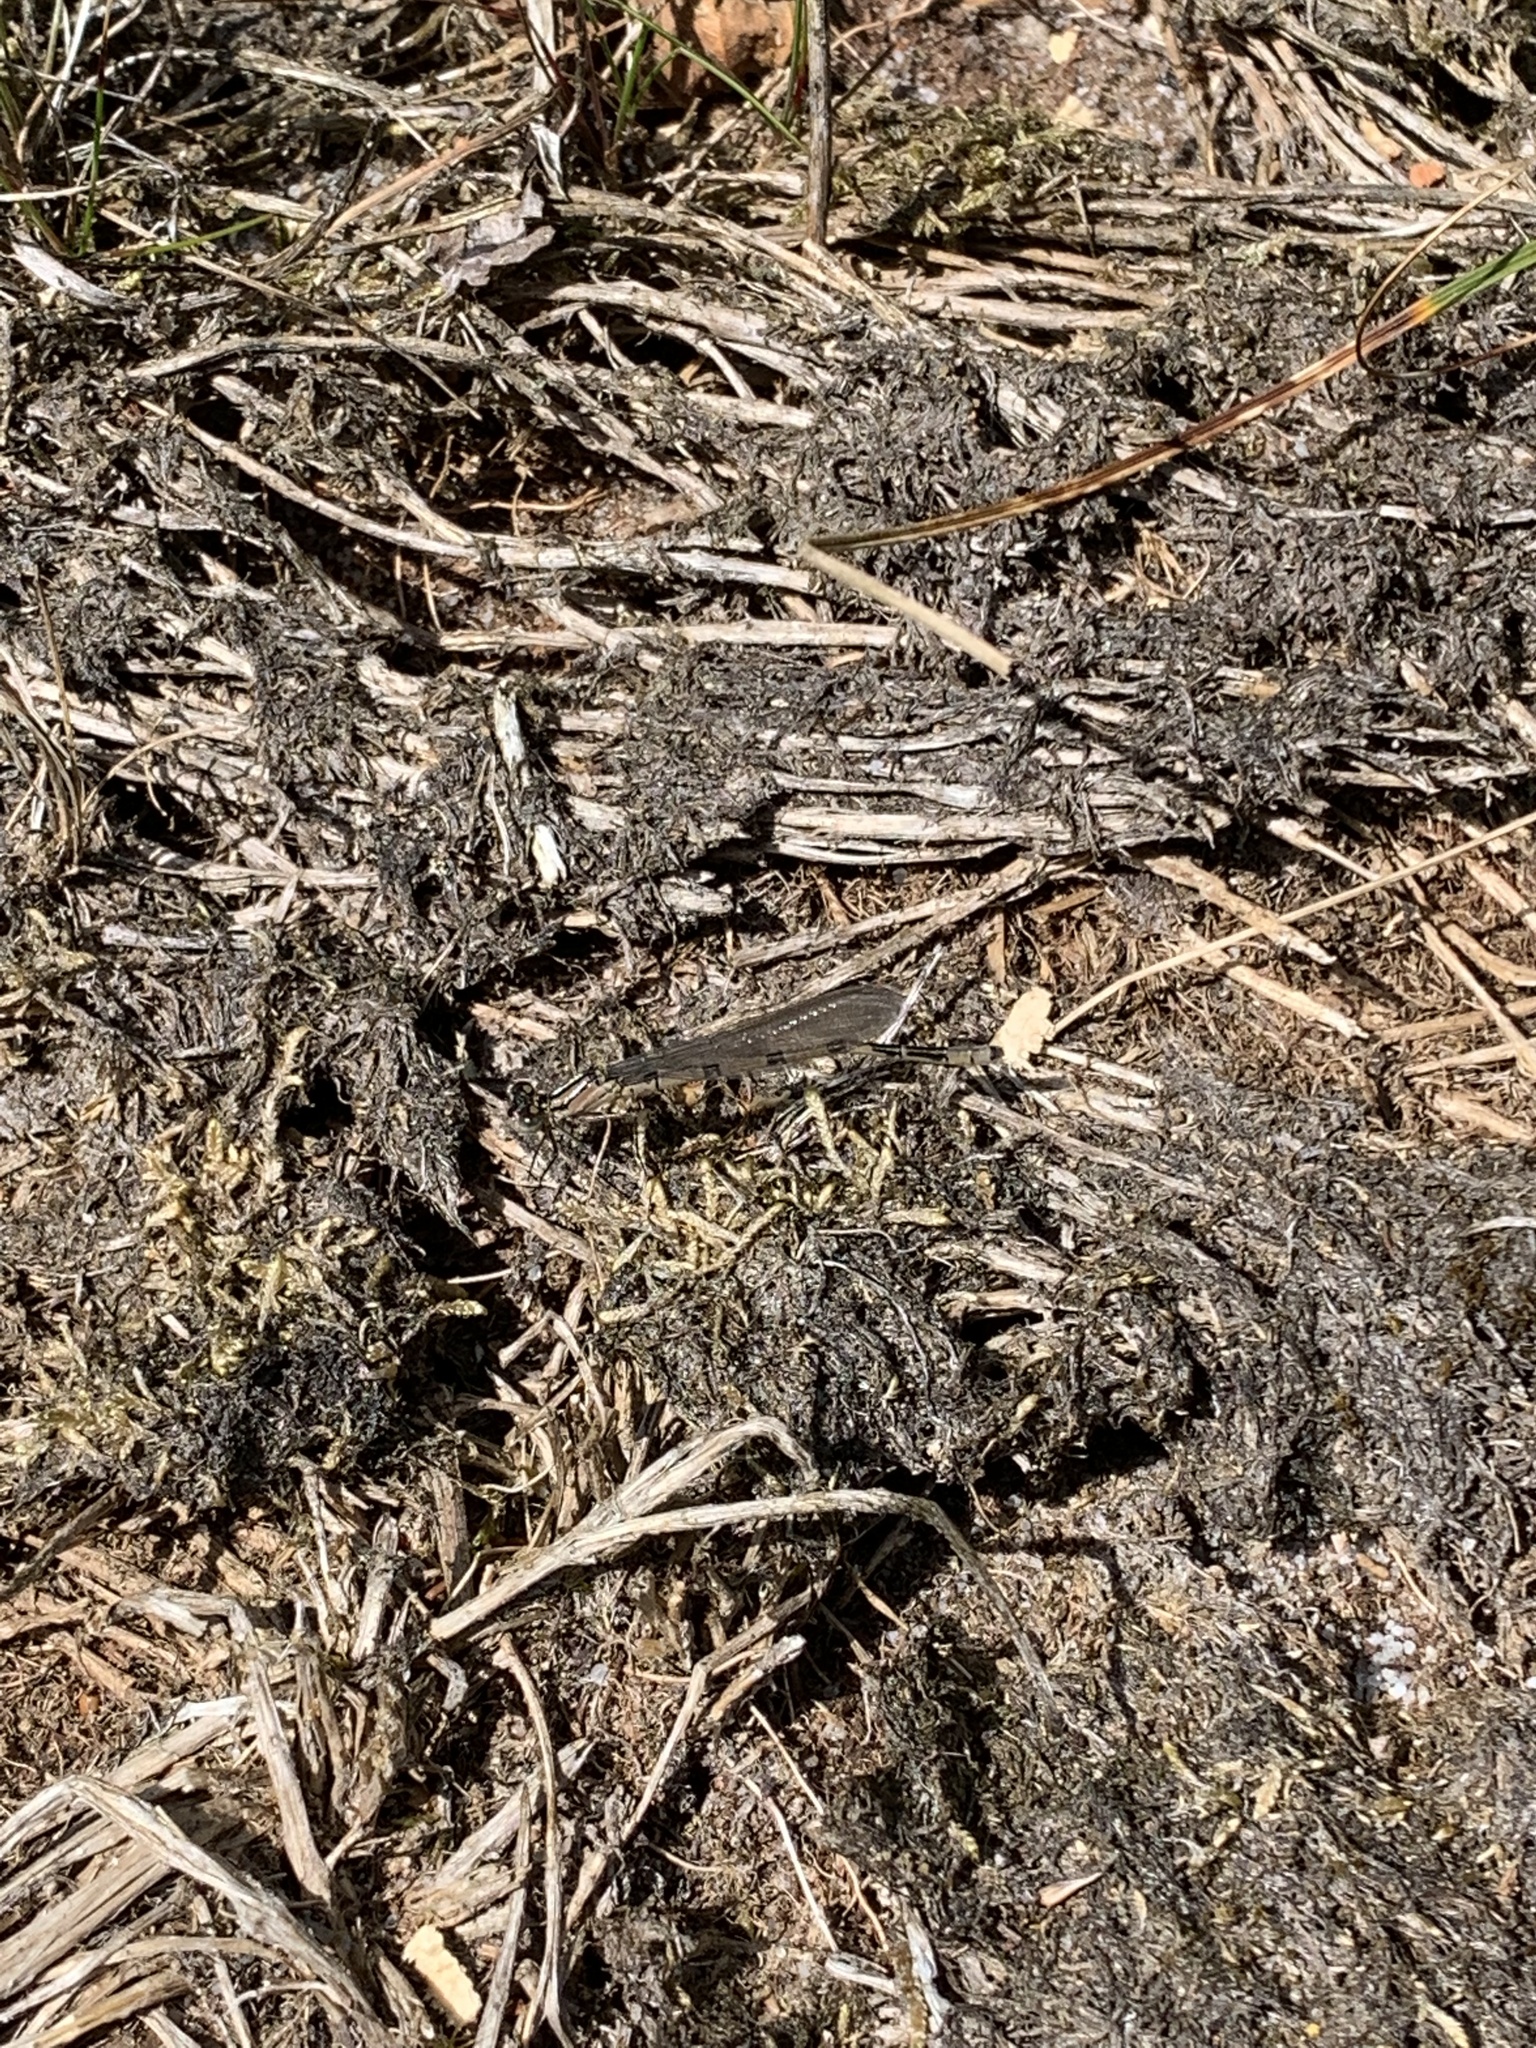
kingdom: Animalia
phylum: Arthropoda
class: Insecta
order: Odonata
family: Coenagrionidae
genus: Enallagma
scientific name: Enallagma cyathigerum
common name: Common blue damselfly
